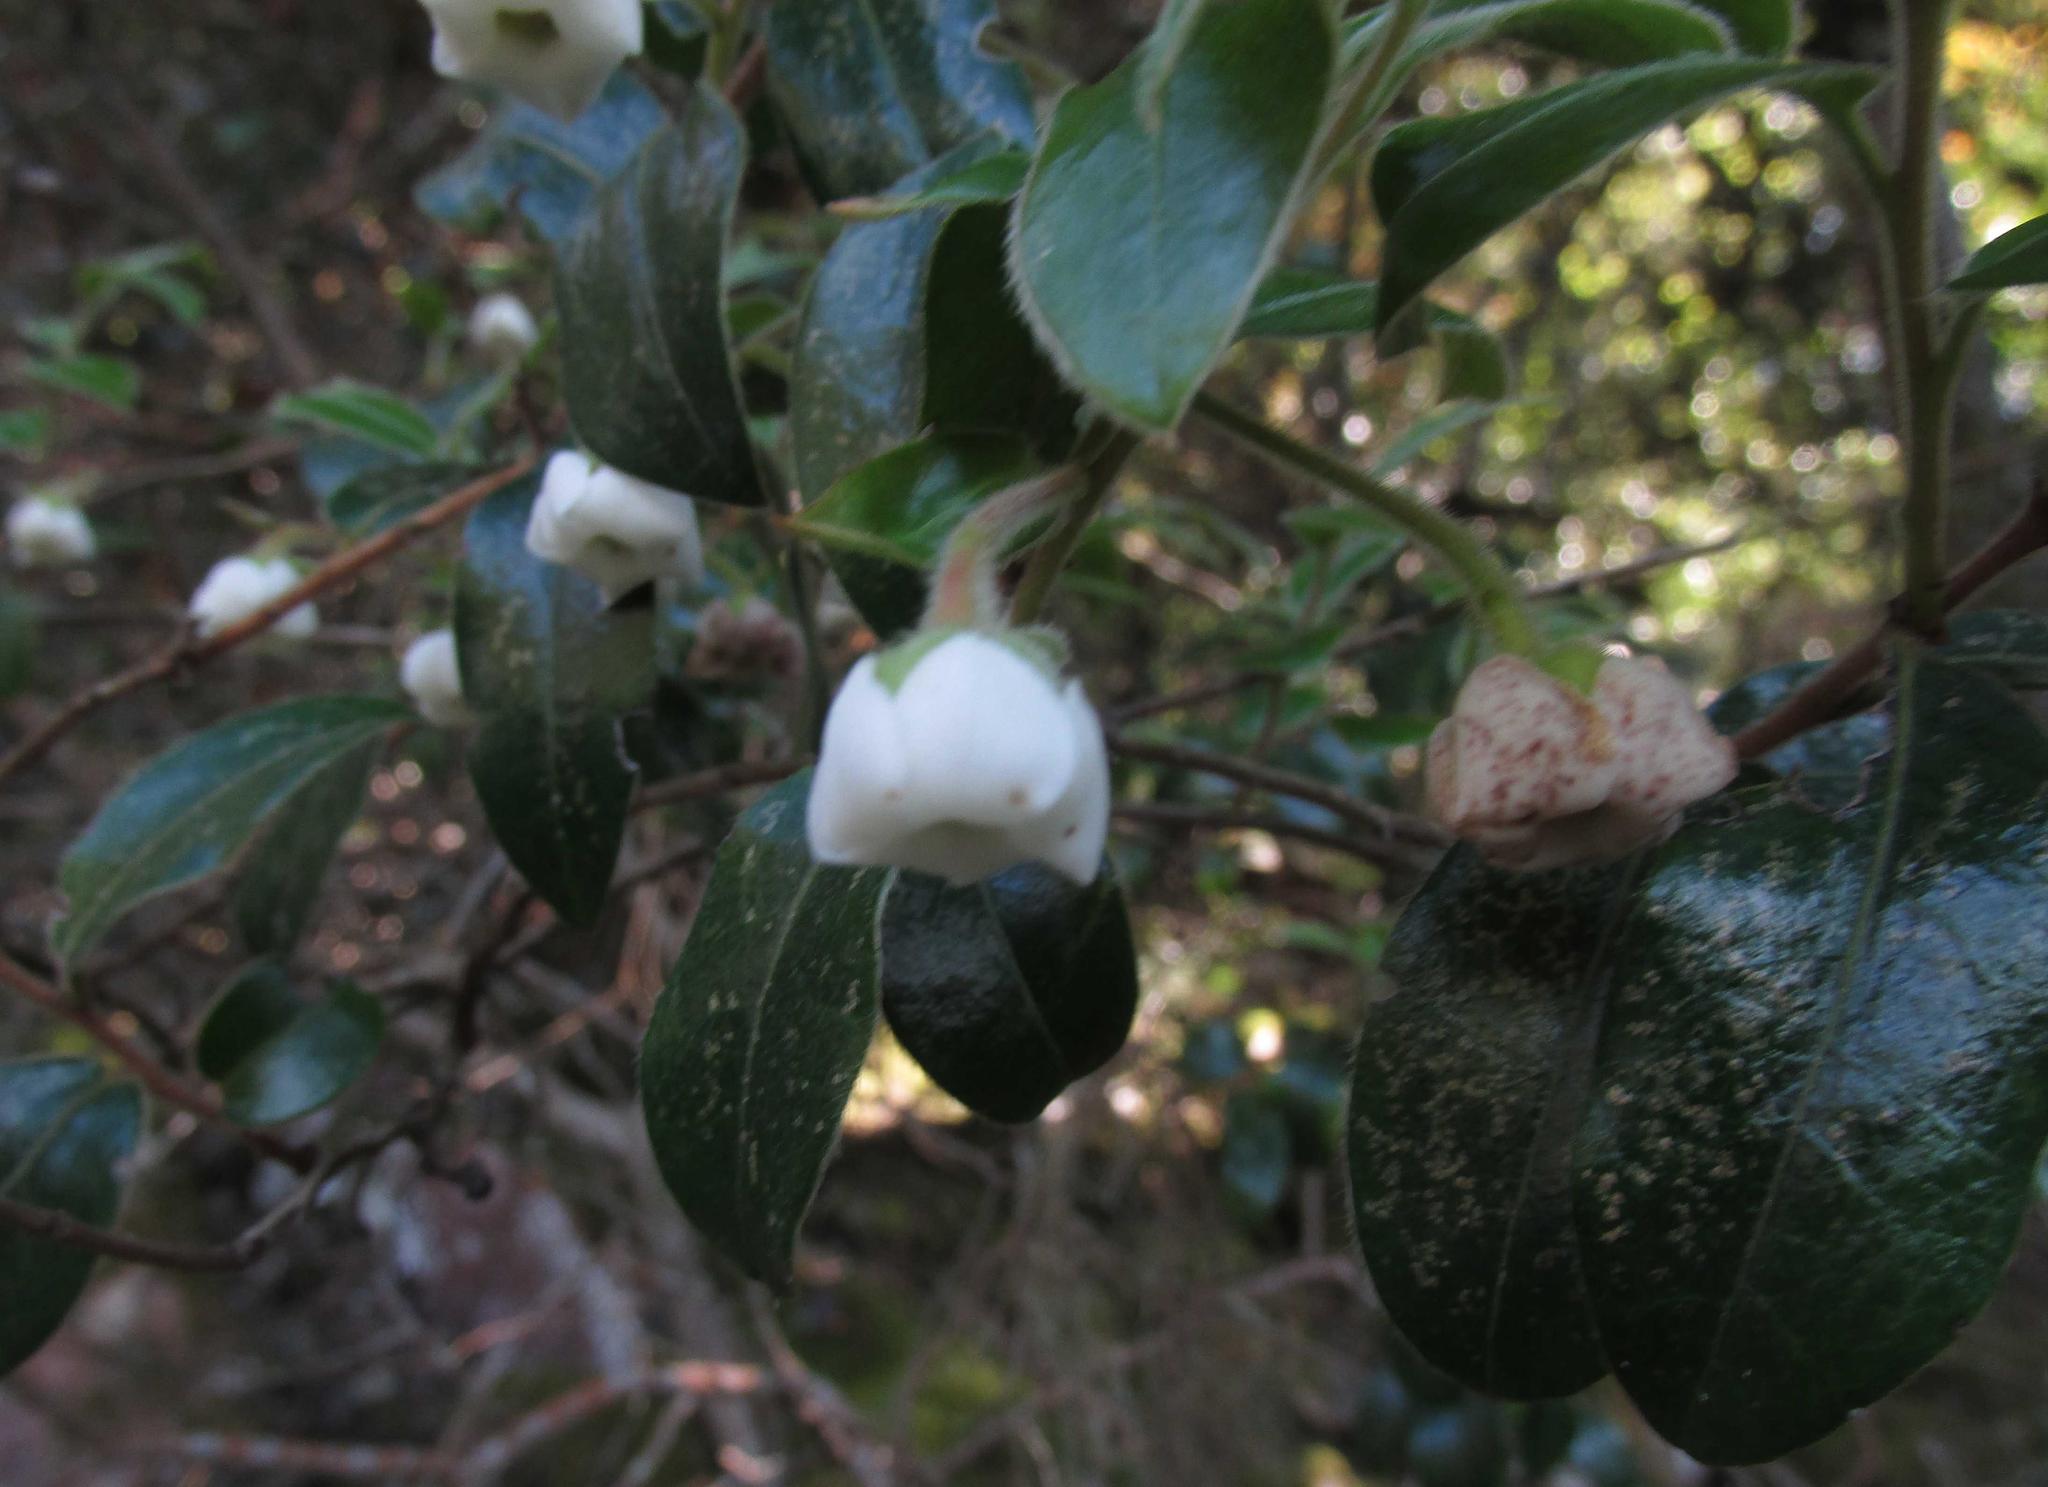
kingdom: Plantae
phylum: Tracheophyta
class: Magnoliopsida
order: Ericales
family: Ebenaceae
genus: Diospyros
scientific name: Diospyros whyteana
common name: Bladder-nut
